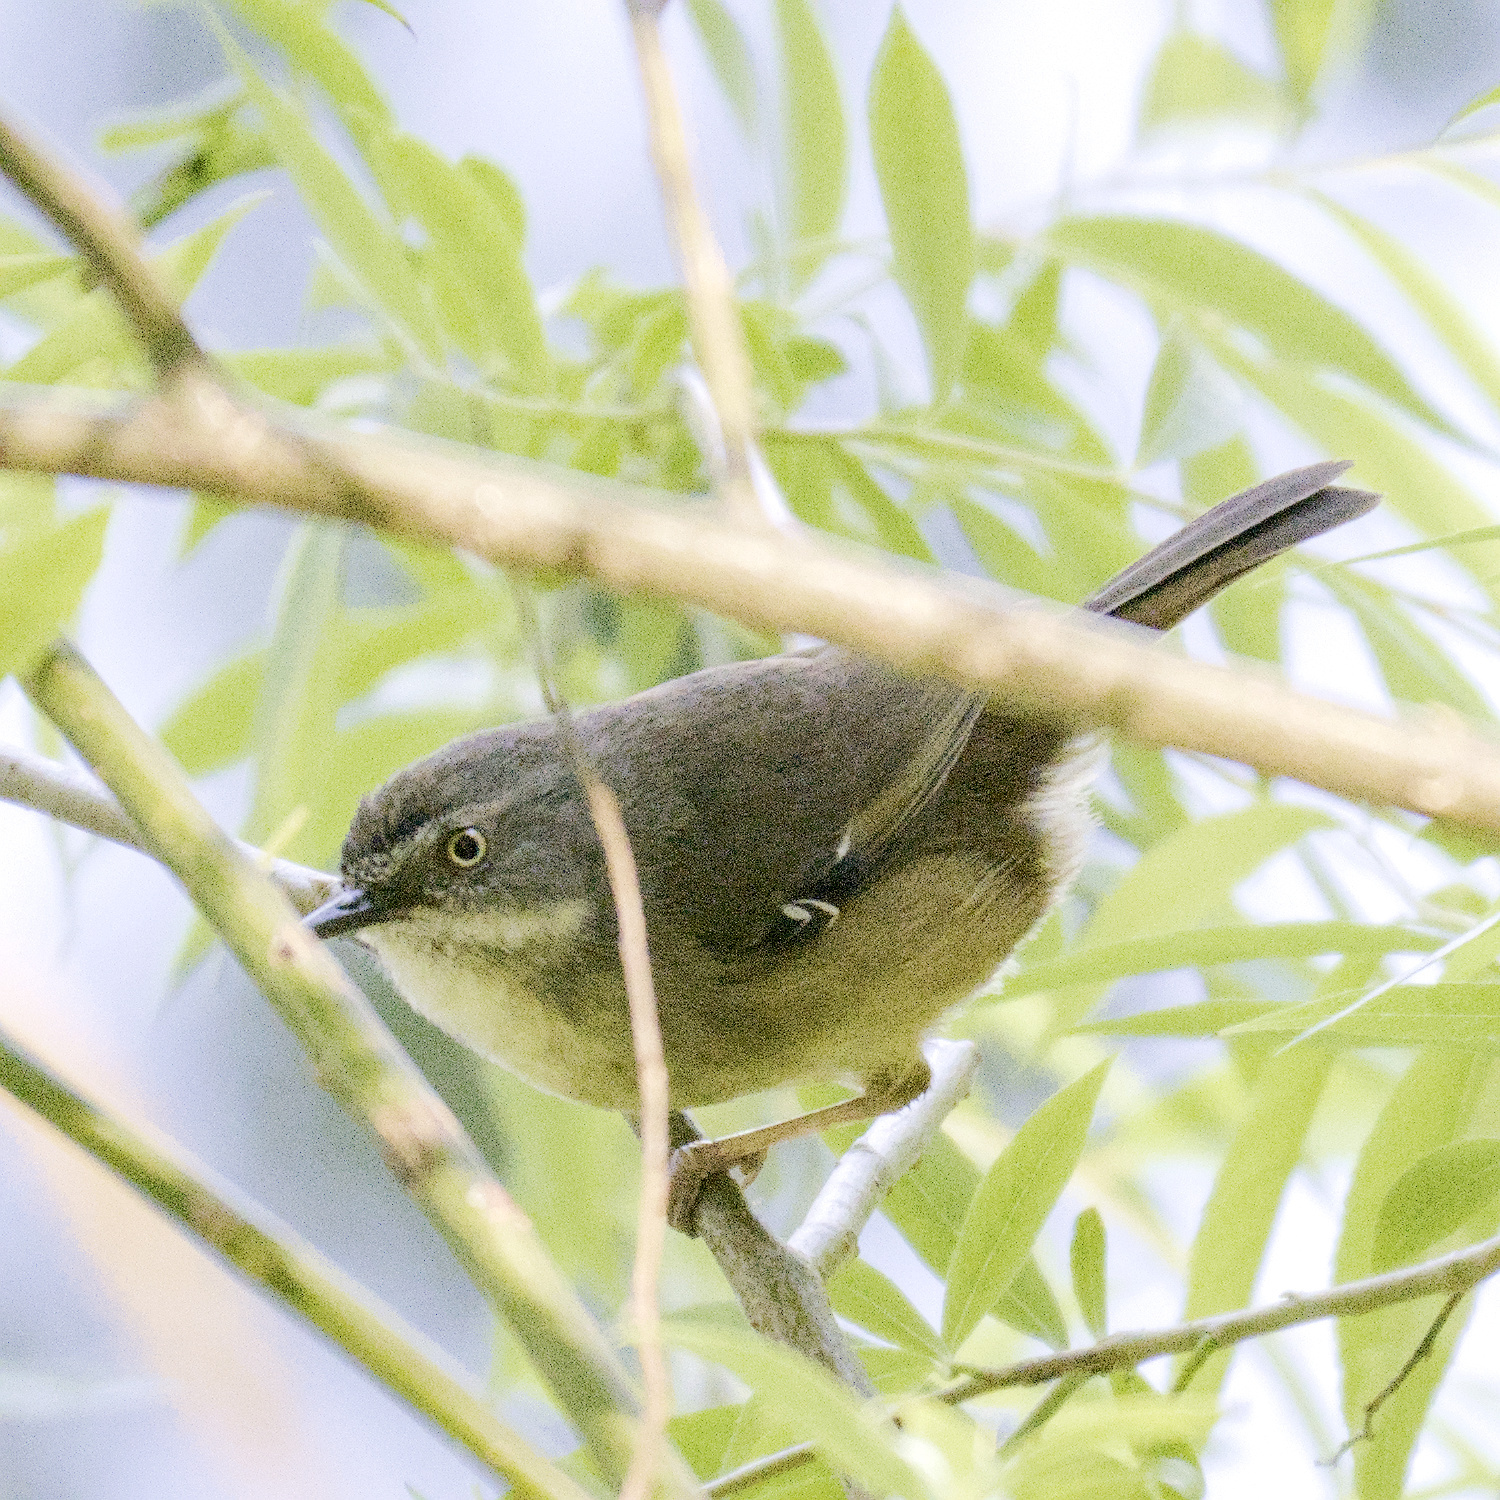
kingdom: Animalia
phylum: Chordata
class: Aves
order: Passeriformes
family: Acanthizidae
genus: Sericornis
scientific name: Sericornis frontalis
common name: White-browed scrubwren
